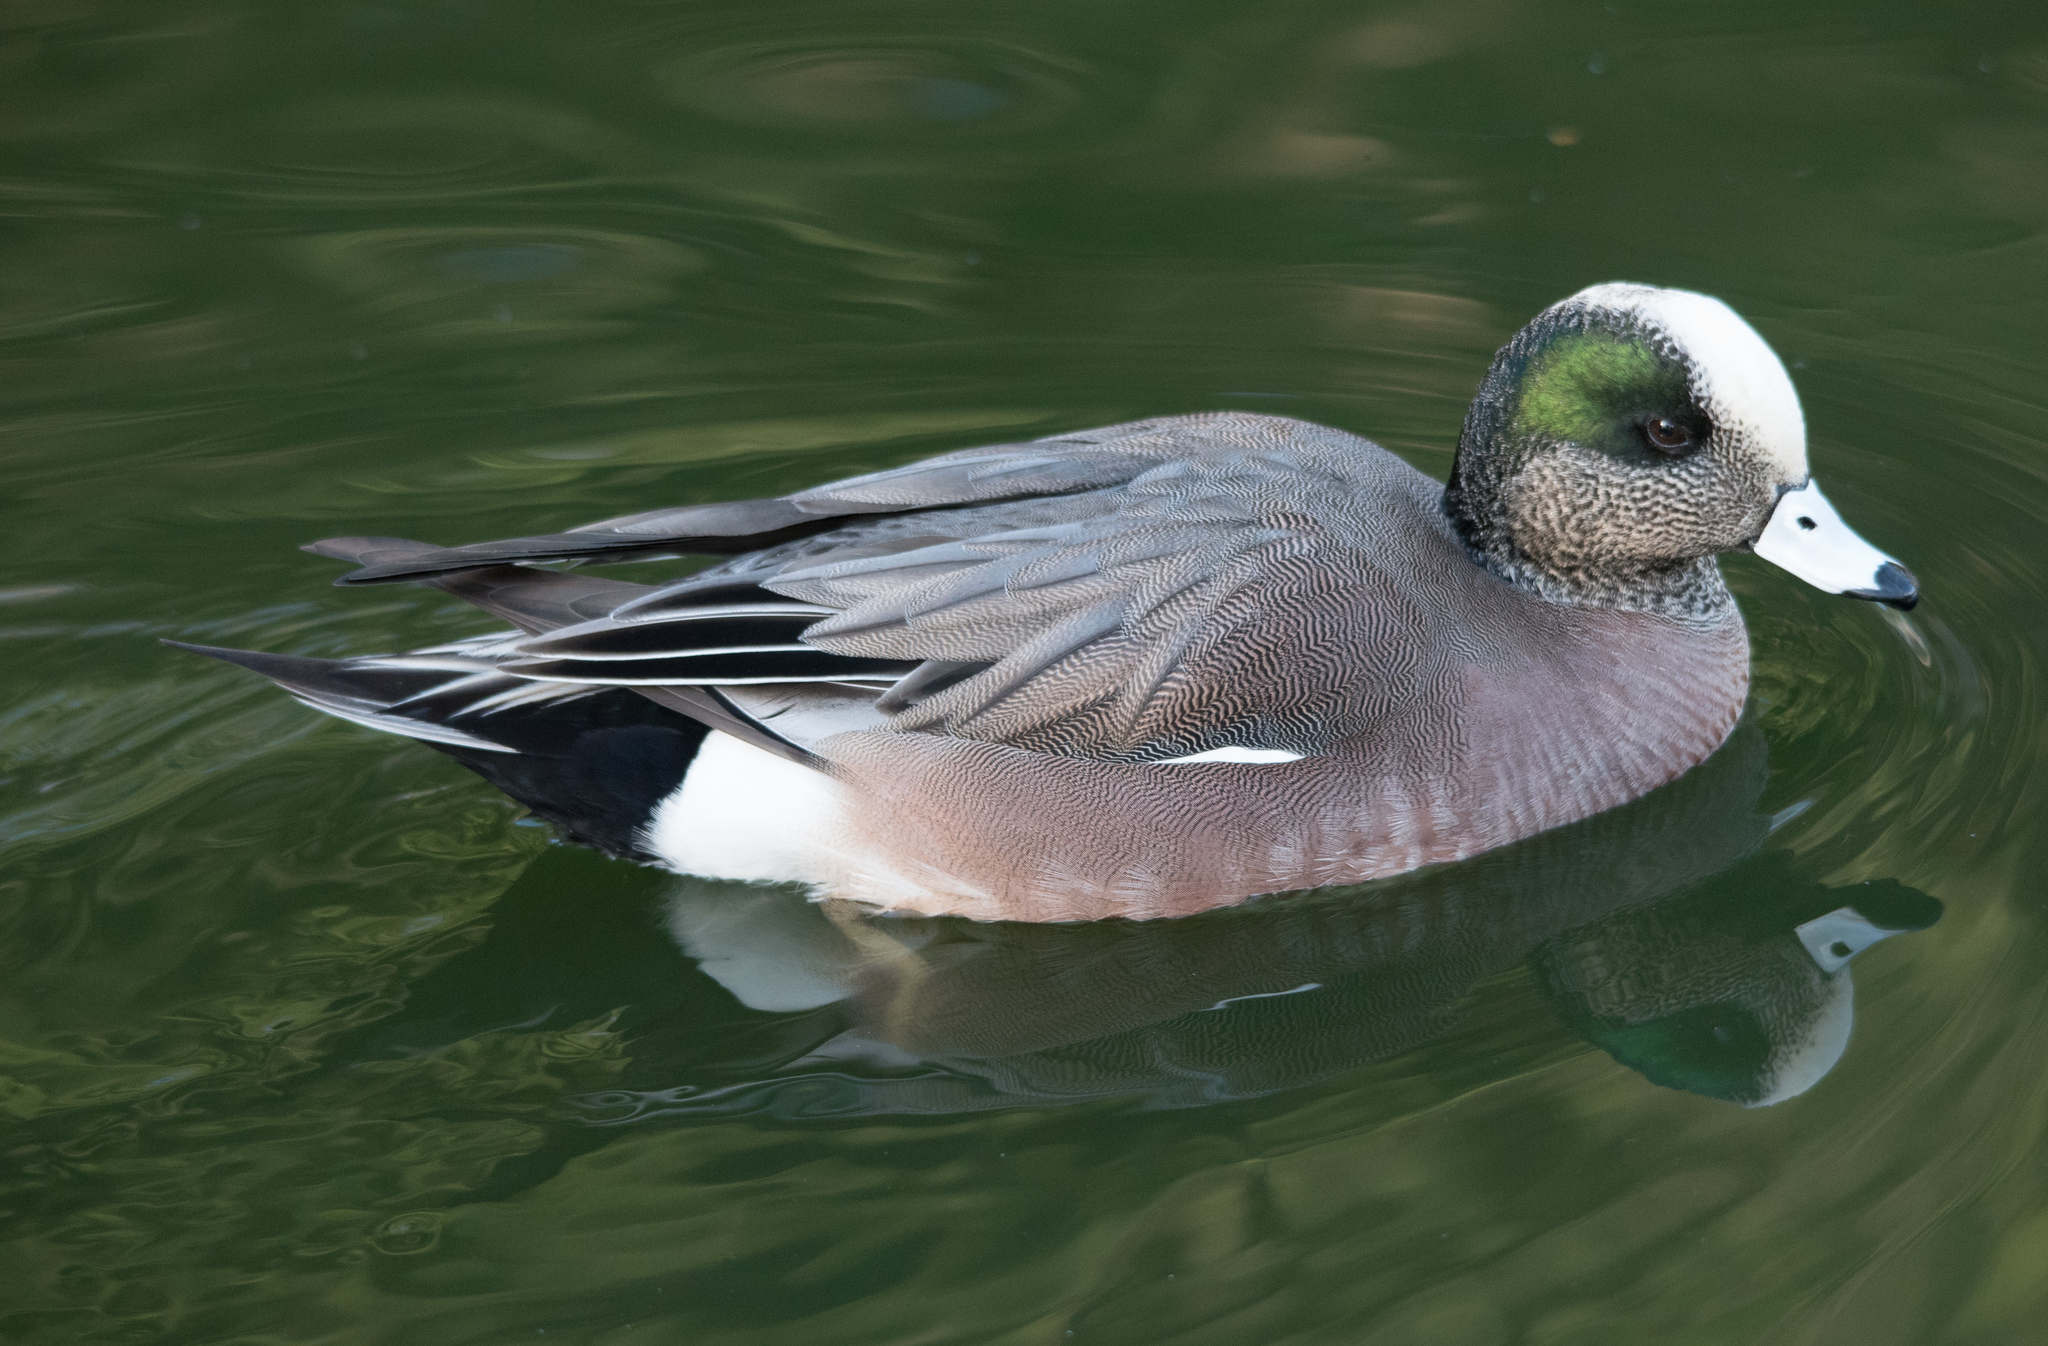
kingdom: Animalia
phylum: Chordata
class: Aves
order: Anseriformes
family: Anatidae
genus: Mareca
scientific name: Mareca americana
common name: American wigeon
